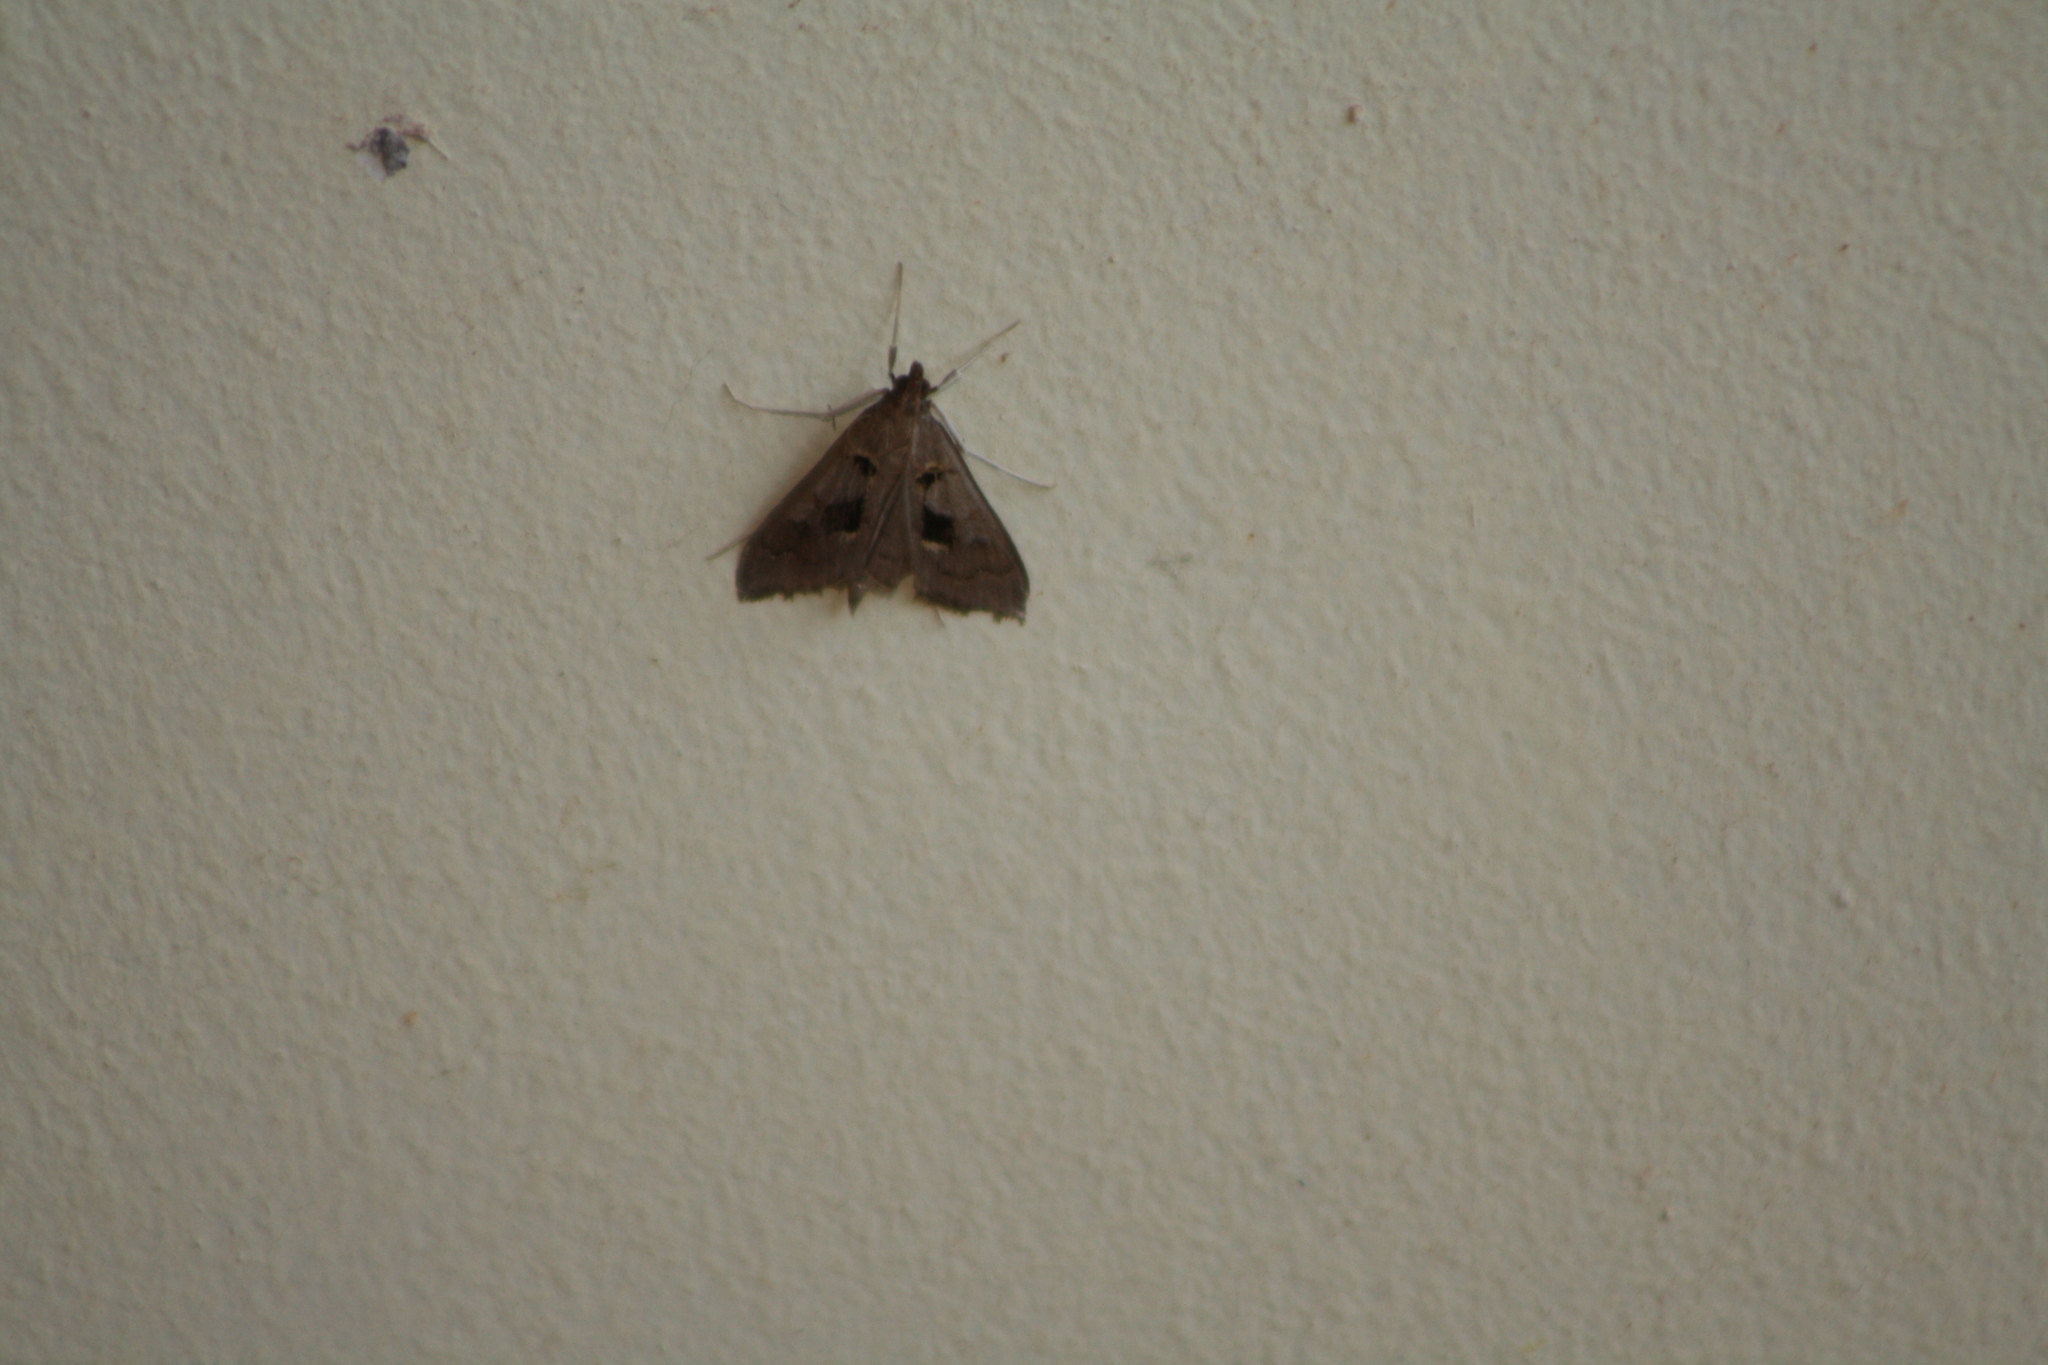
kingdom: Animalia
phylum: Arthropoda
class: Insecta
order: Lepidoptera
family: Crambidae
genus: Mecyna
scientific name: Mecyna asinalis
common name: Coastal pearl
